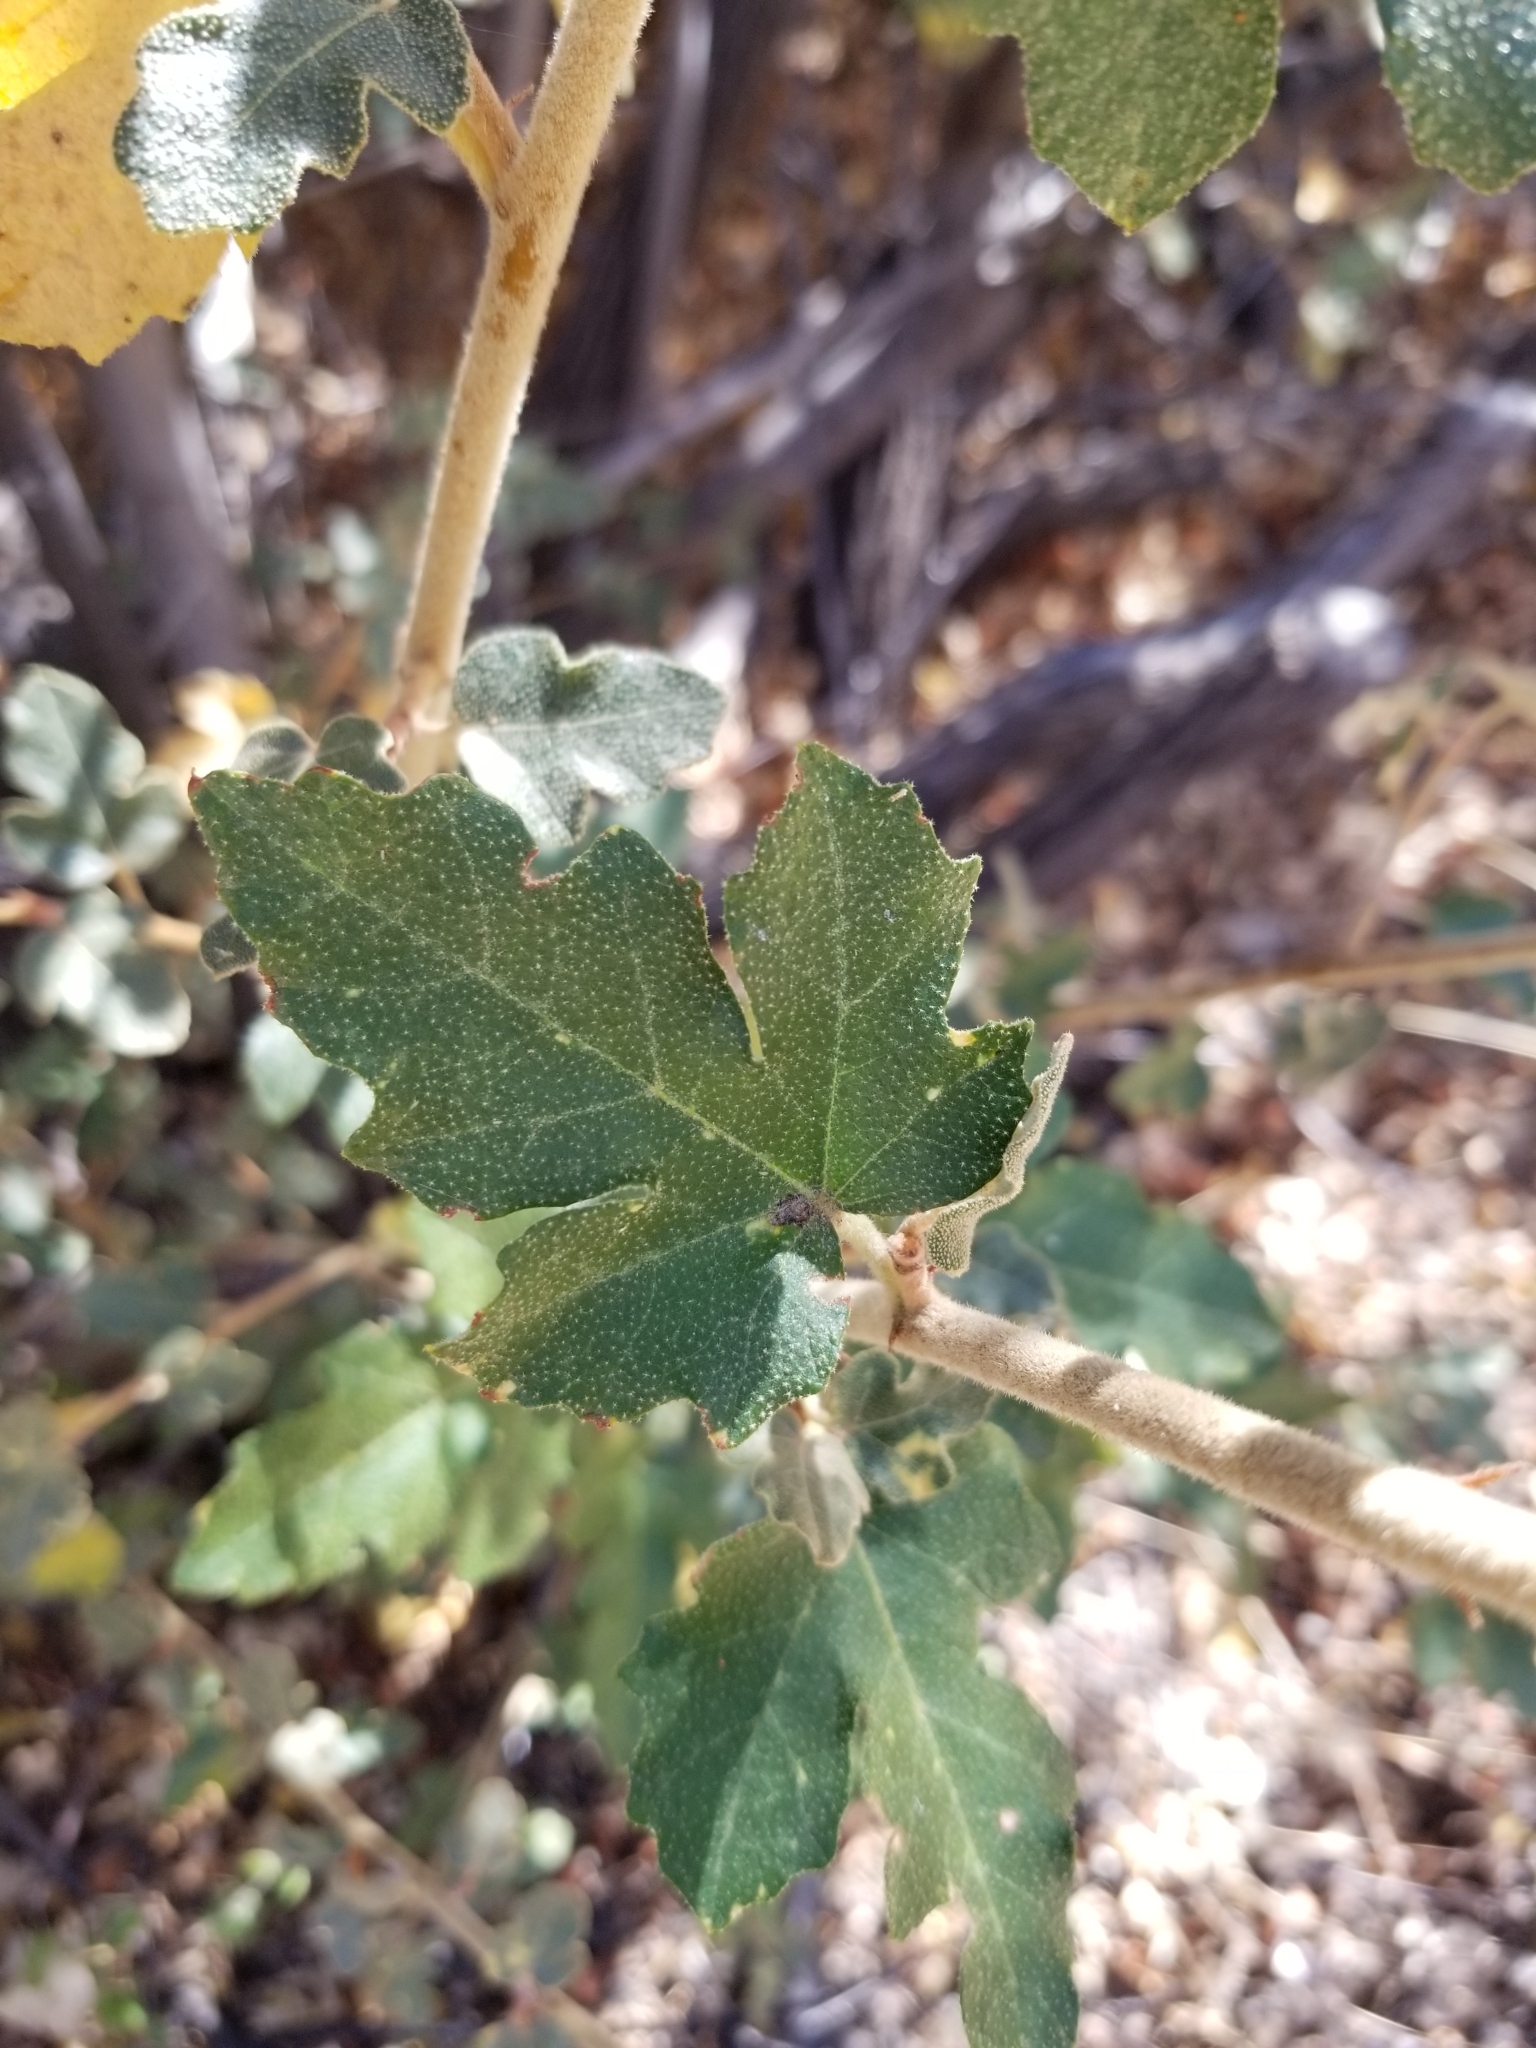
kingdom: Plantae
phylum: Tracheophyta
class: Magnoliopsida
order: Malvales
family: Malvaceae
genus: Fremontodendron
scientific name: Fremontodendron californicum
